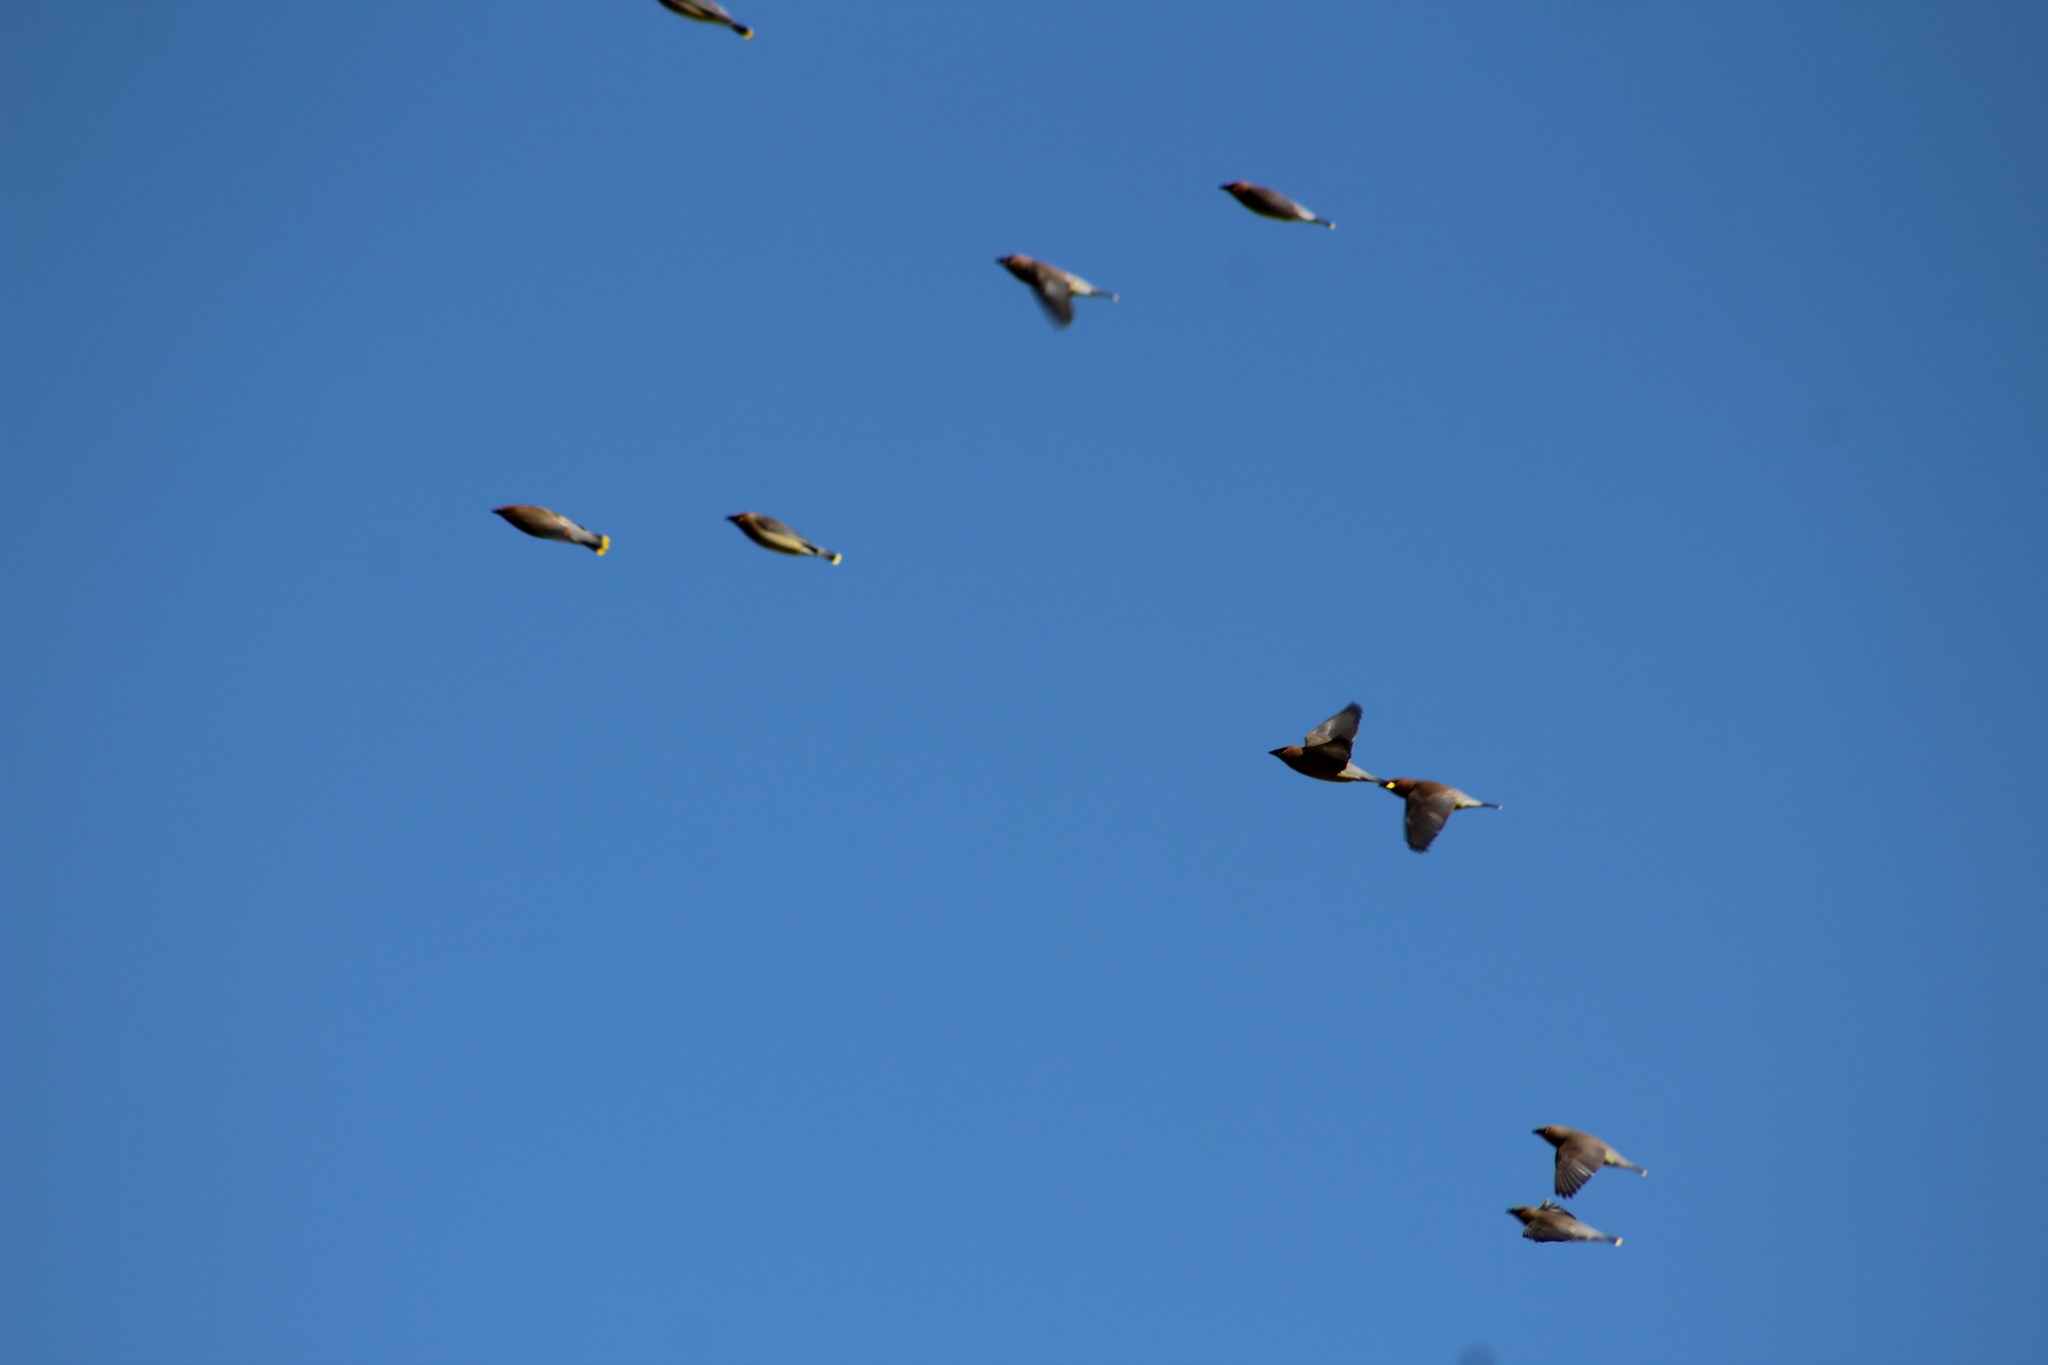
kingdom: Animalia
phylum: Chordata
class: Aves
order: Passeriformes
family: Bombycillidae
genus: Bombycilla
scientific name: Bombycilla cedrorum
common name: Cedar waxwing
